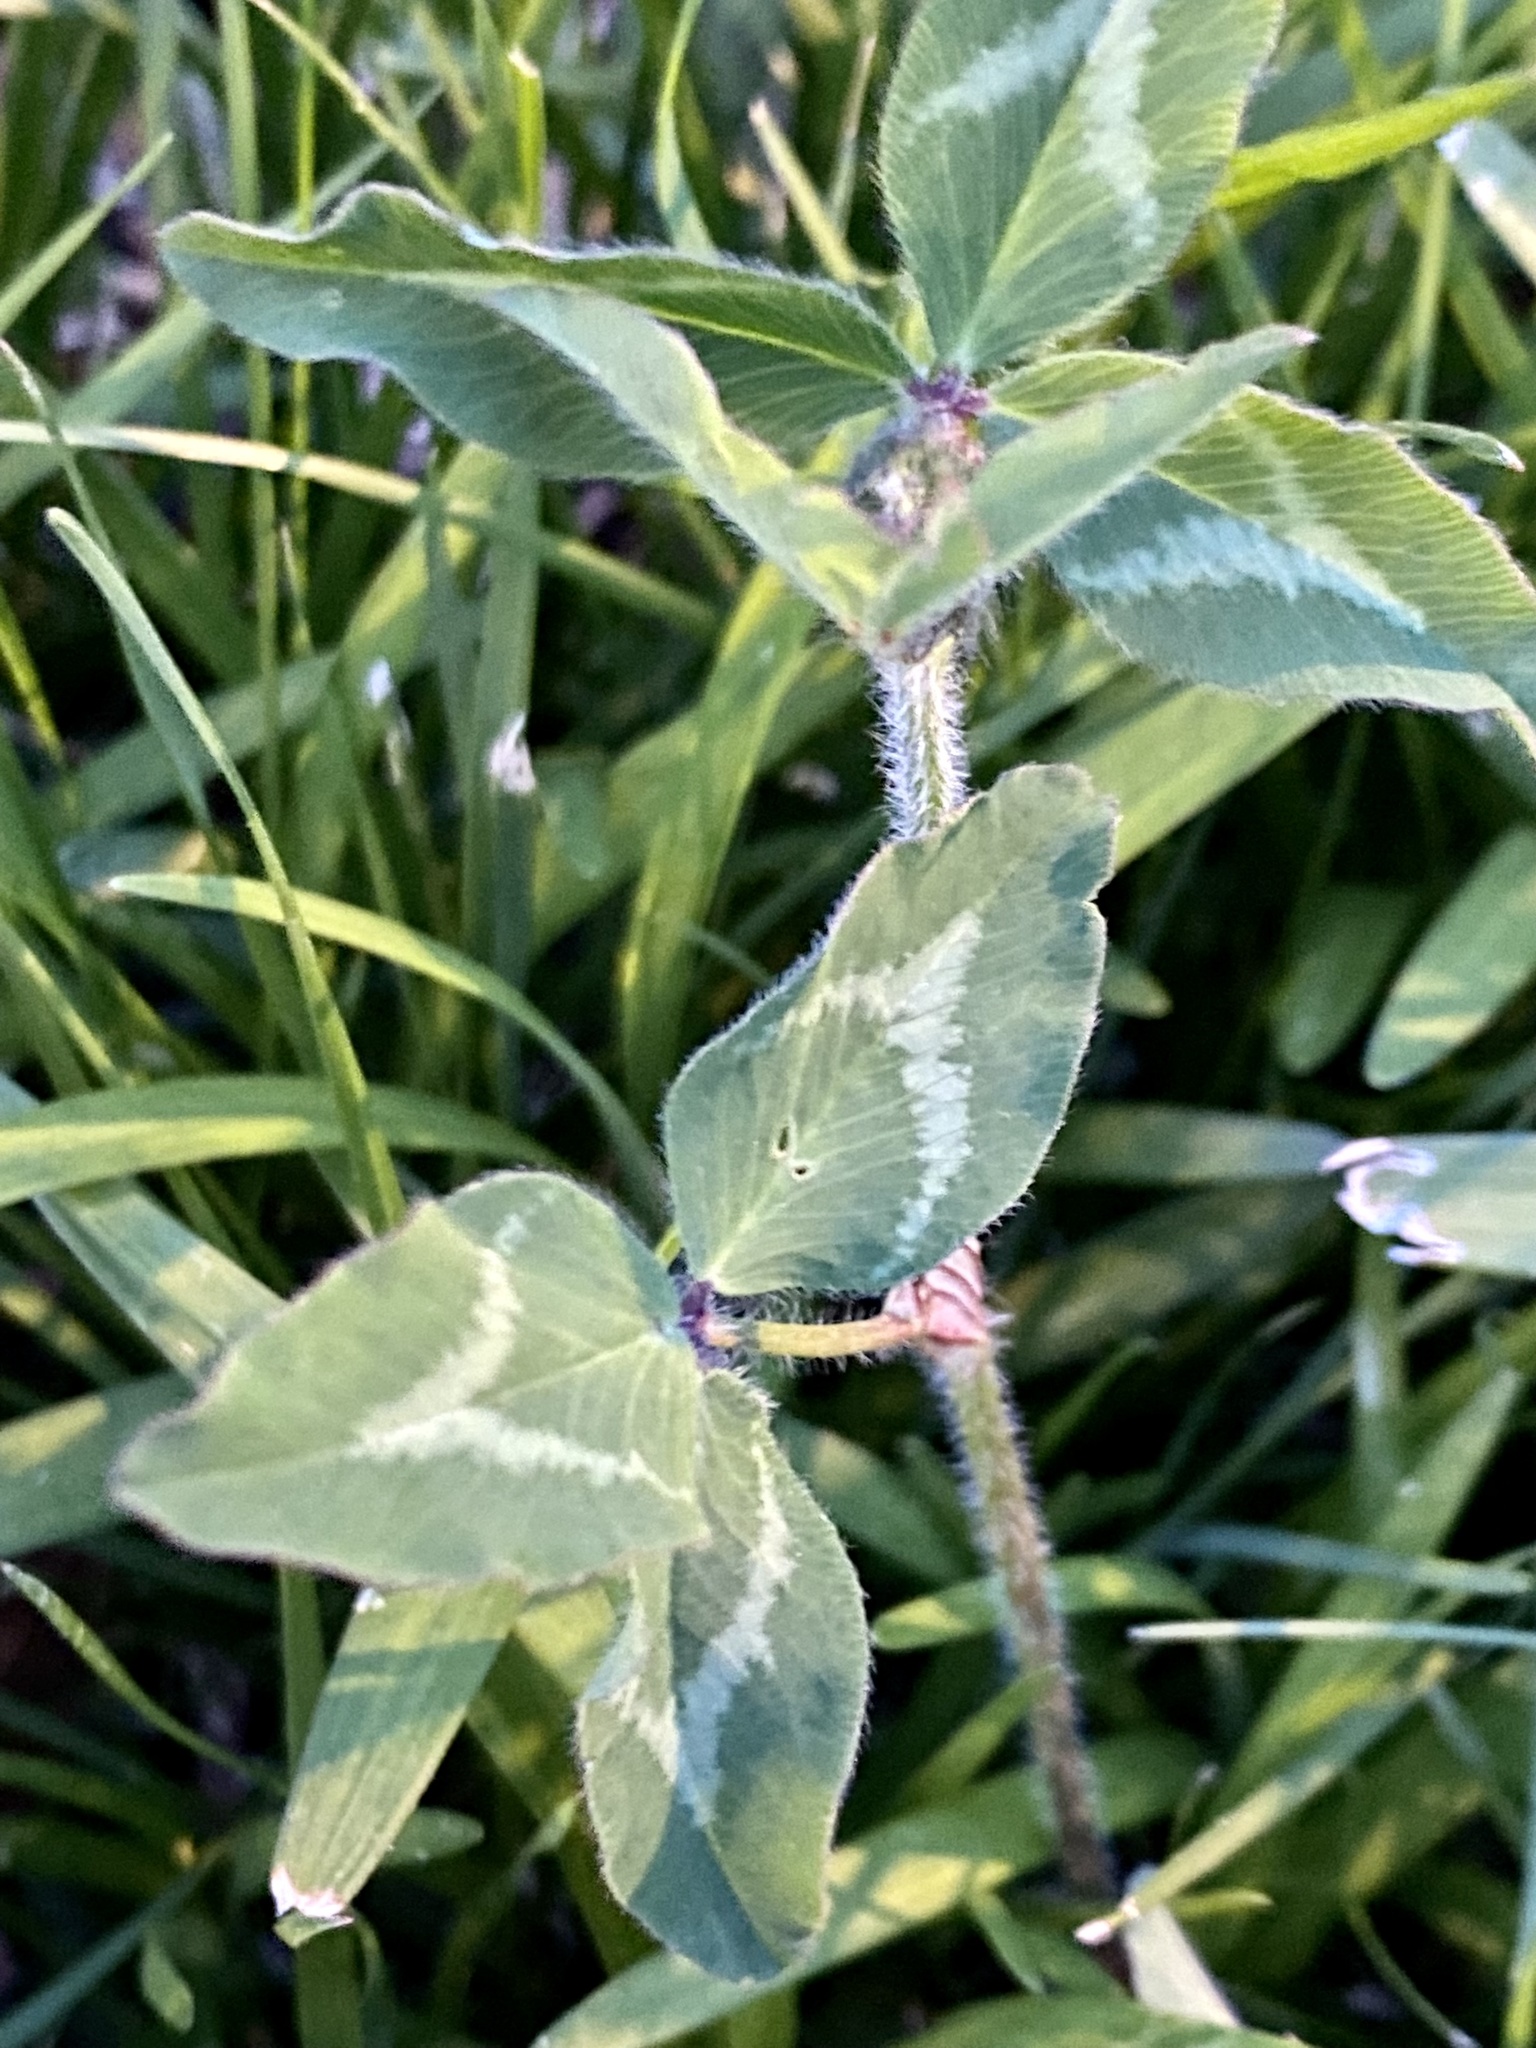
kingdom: Plantae
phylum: Tracheophyta
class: Magnoliopsida
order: Fabales
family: Fabaceae
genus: Trifolium
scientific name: Trifolium pratense
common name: Red clover
